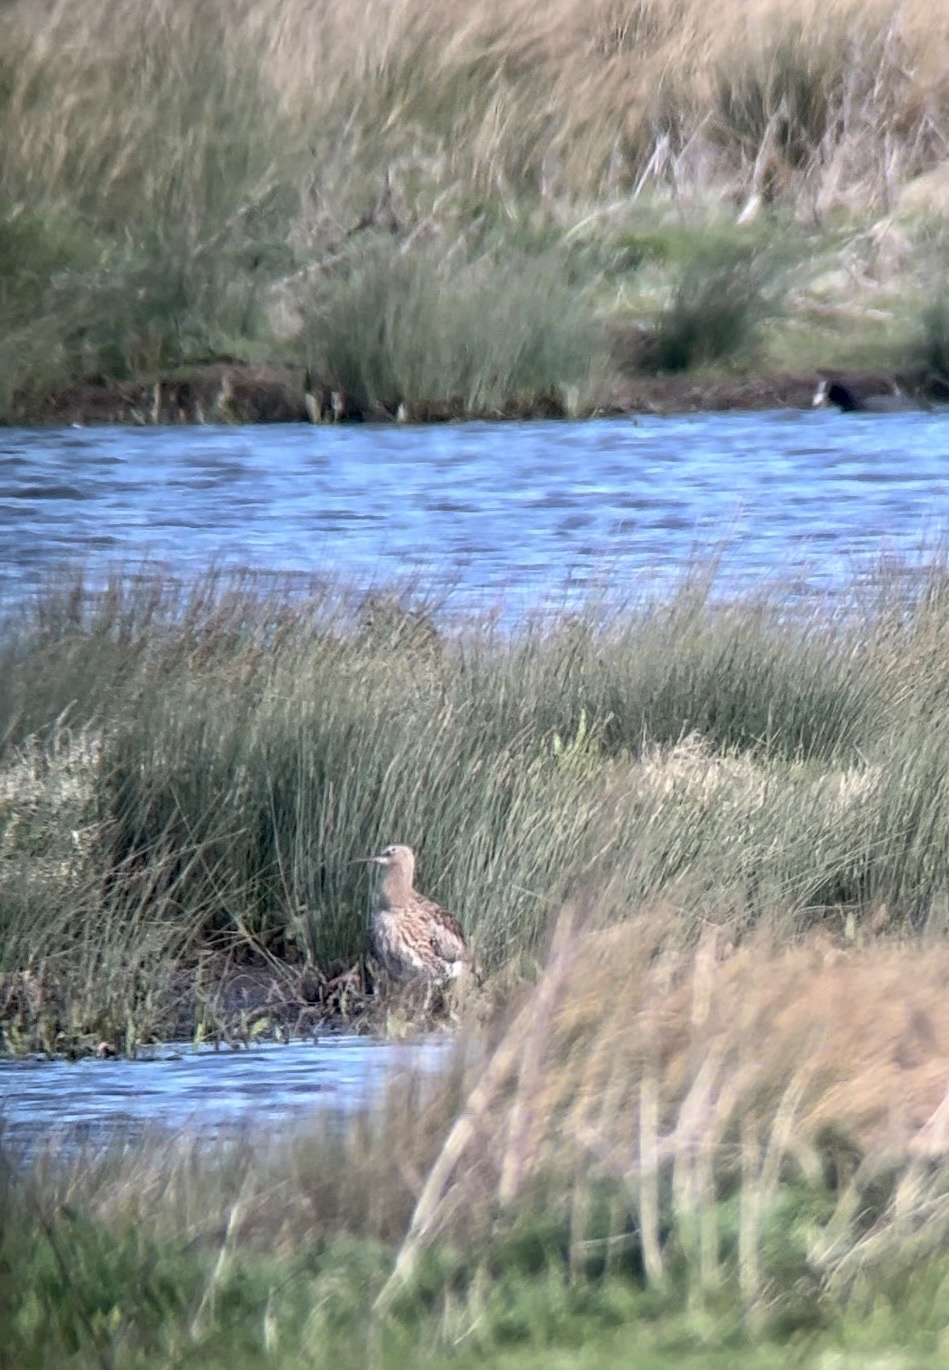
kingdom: Animalia
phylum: Chordata
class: Aves
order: Charadriiformes
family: Scolopacidae
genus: Numenius
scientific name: Numenius phaeopus
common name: Whimbrel
